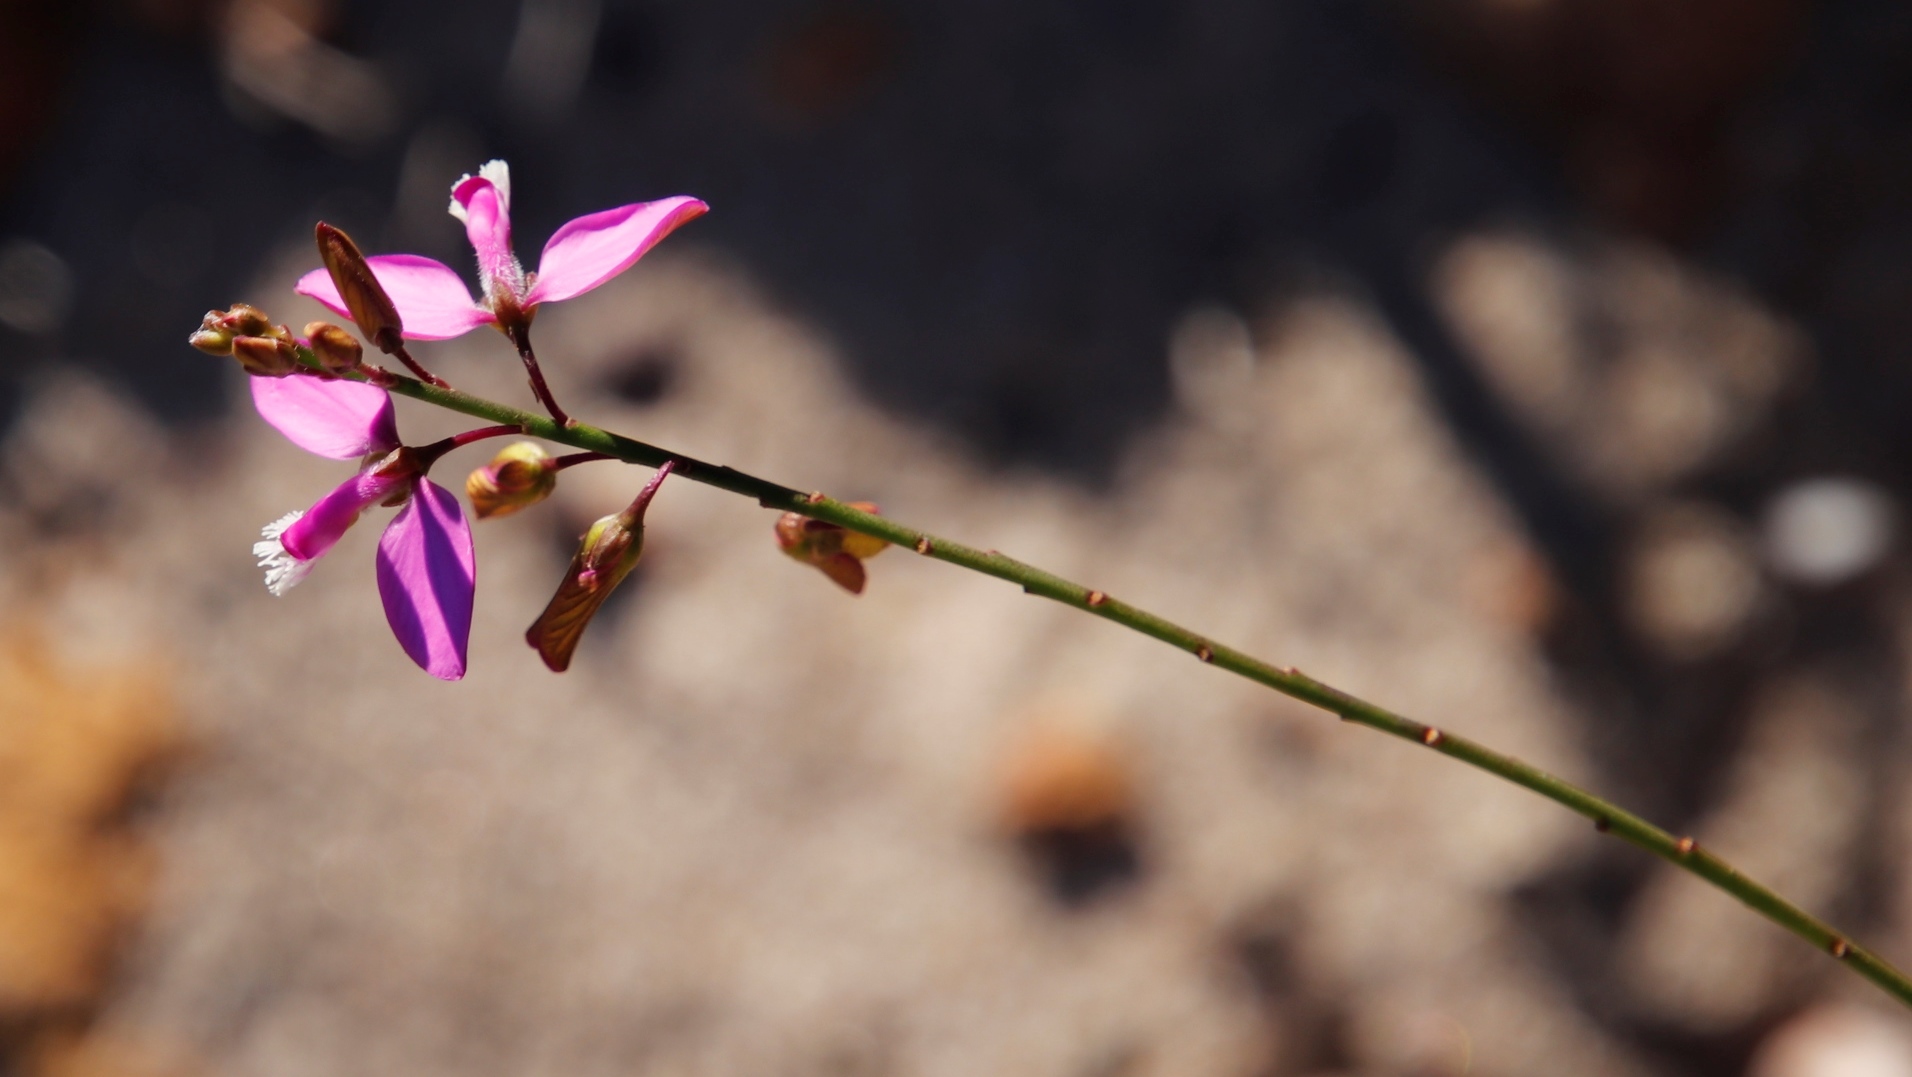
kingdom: Plantae
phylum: Tracheophyta
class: Magnoliopsida
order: Fabales
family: Polygalaceae
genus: Polygala
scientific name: Polygala garcini
